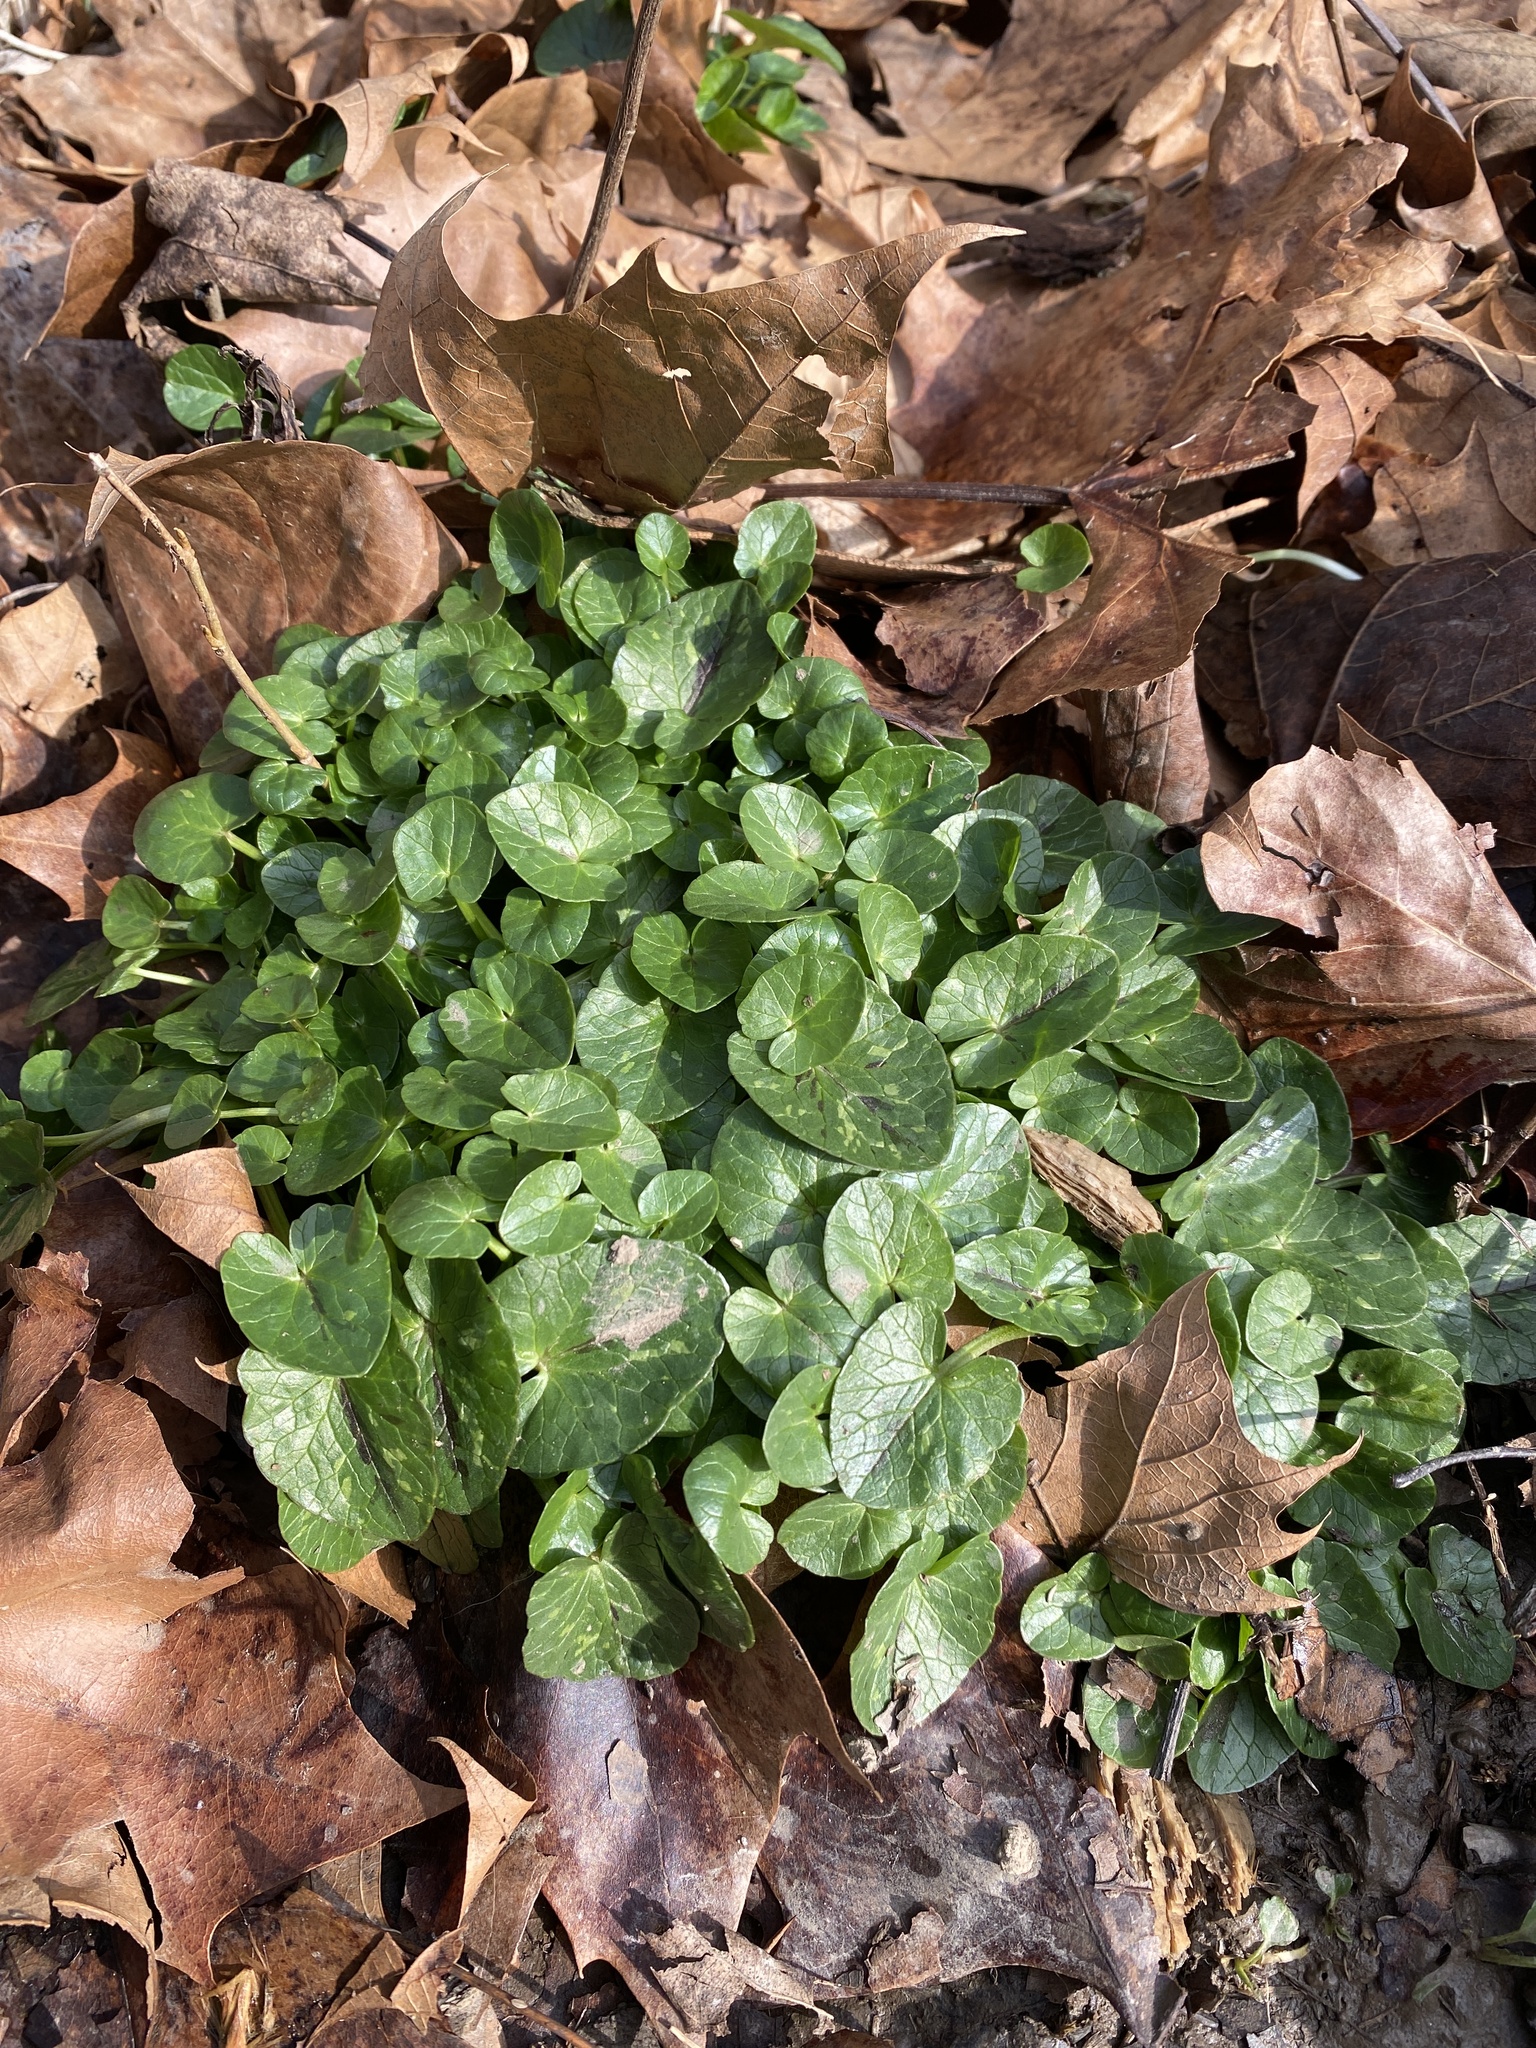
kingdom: Plantae
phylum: Tracheophyta
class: Magnoliopsida
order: Ranunculales
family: Ranunculaceae
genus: Ficaria
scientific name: Ficaria verna
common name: Lesser celandine
